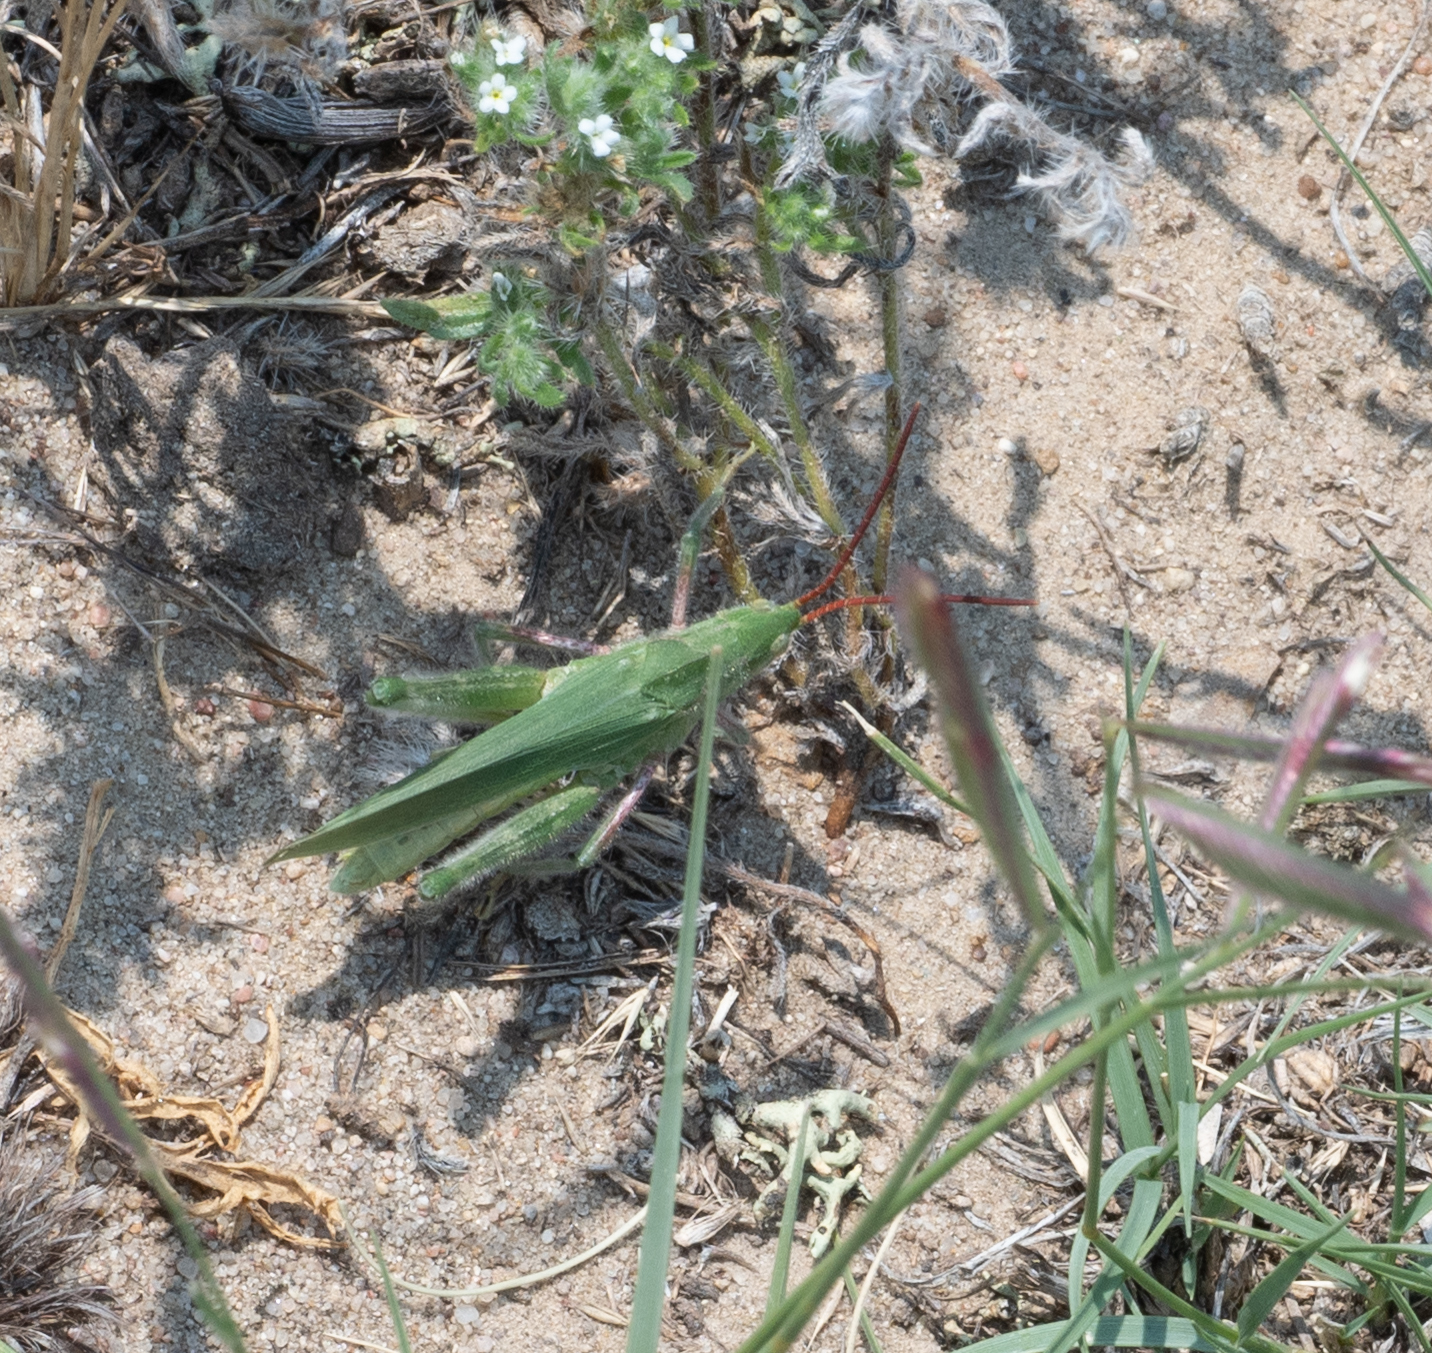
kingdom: Animalia
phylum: Arthropoda
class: Insecta
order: Orthoptera
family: Acrididae
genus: Acrolophitus
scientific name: Acrolophitus hirtipes
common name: Green fool grasshopper
